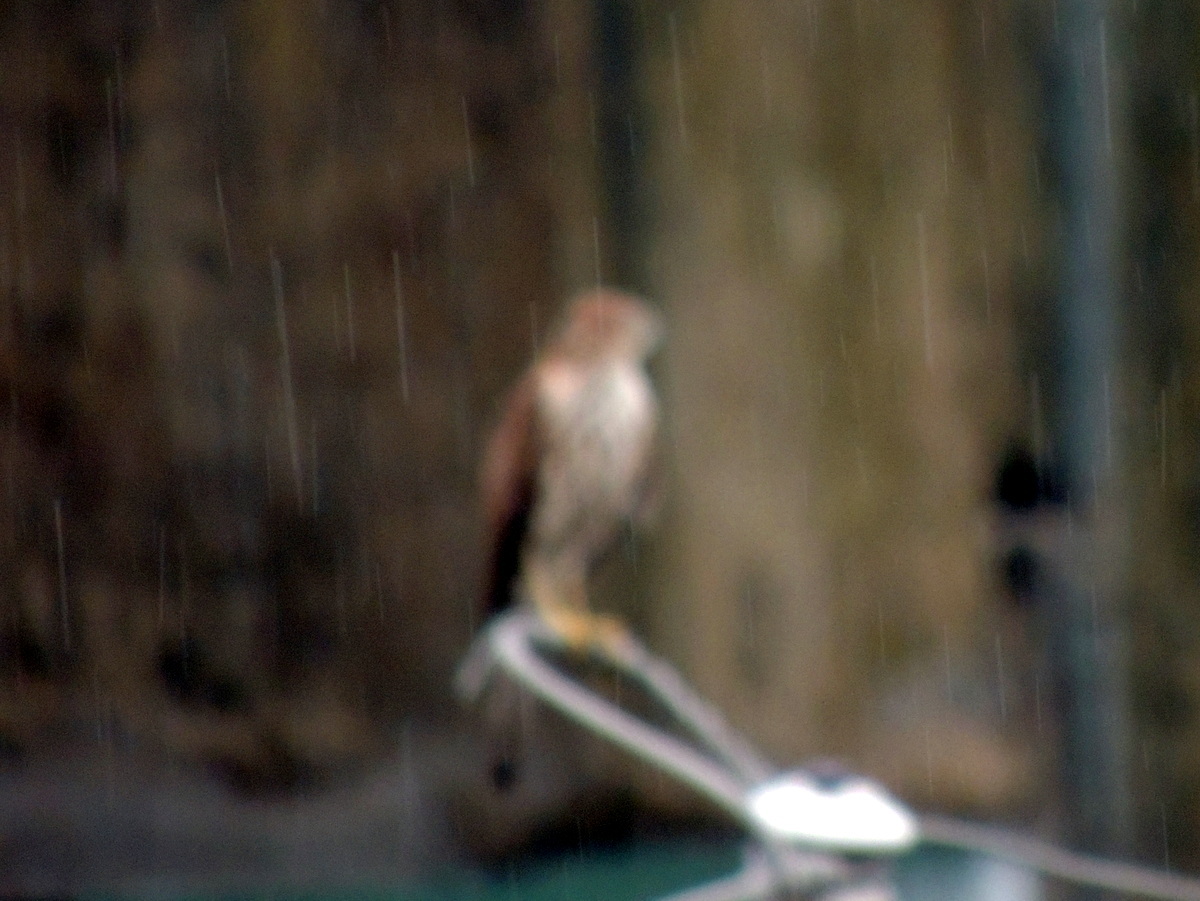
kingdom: Animalia
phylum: Chordata
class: Aves
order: Accipitriformes
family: Accipitridae
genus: Accipiter
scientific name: Accipiter badius
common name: Shikra
